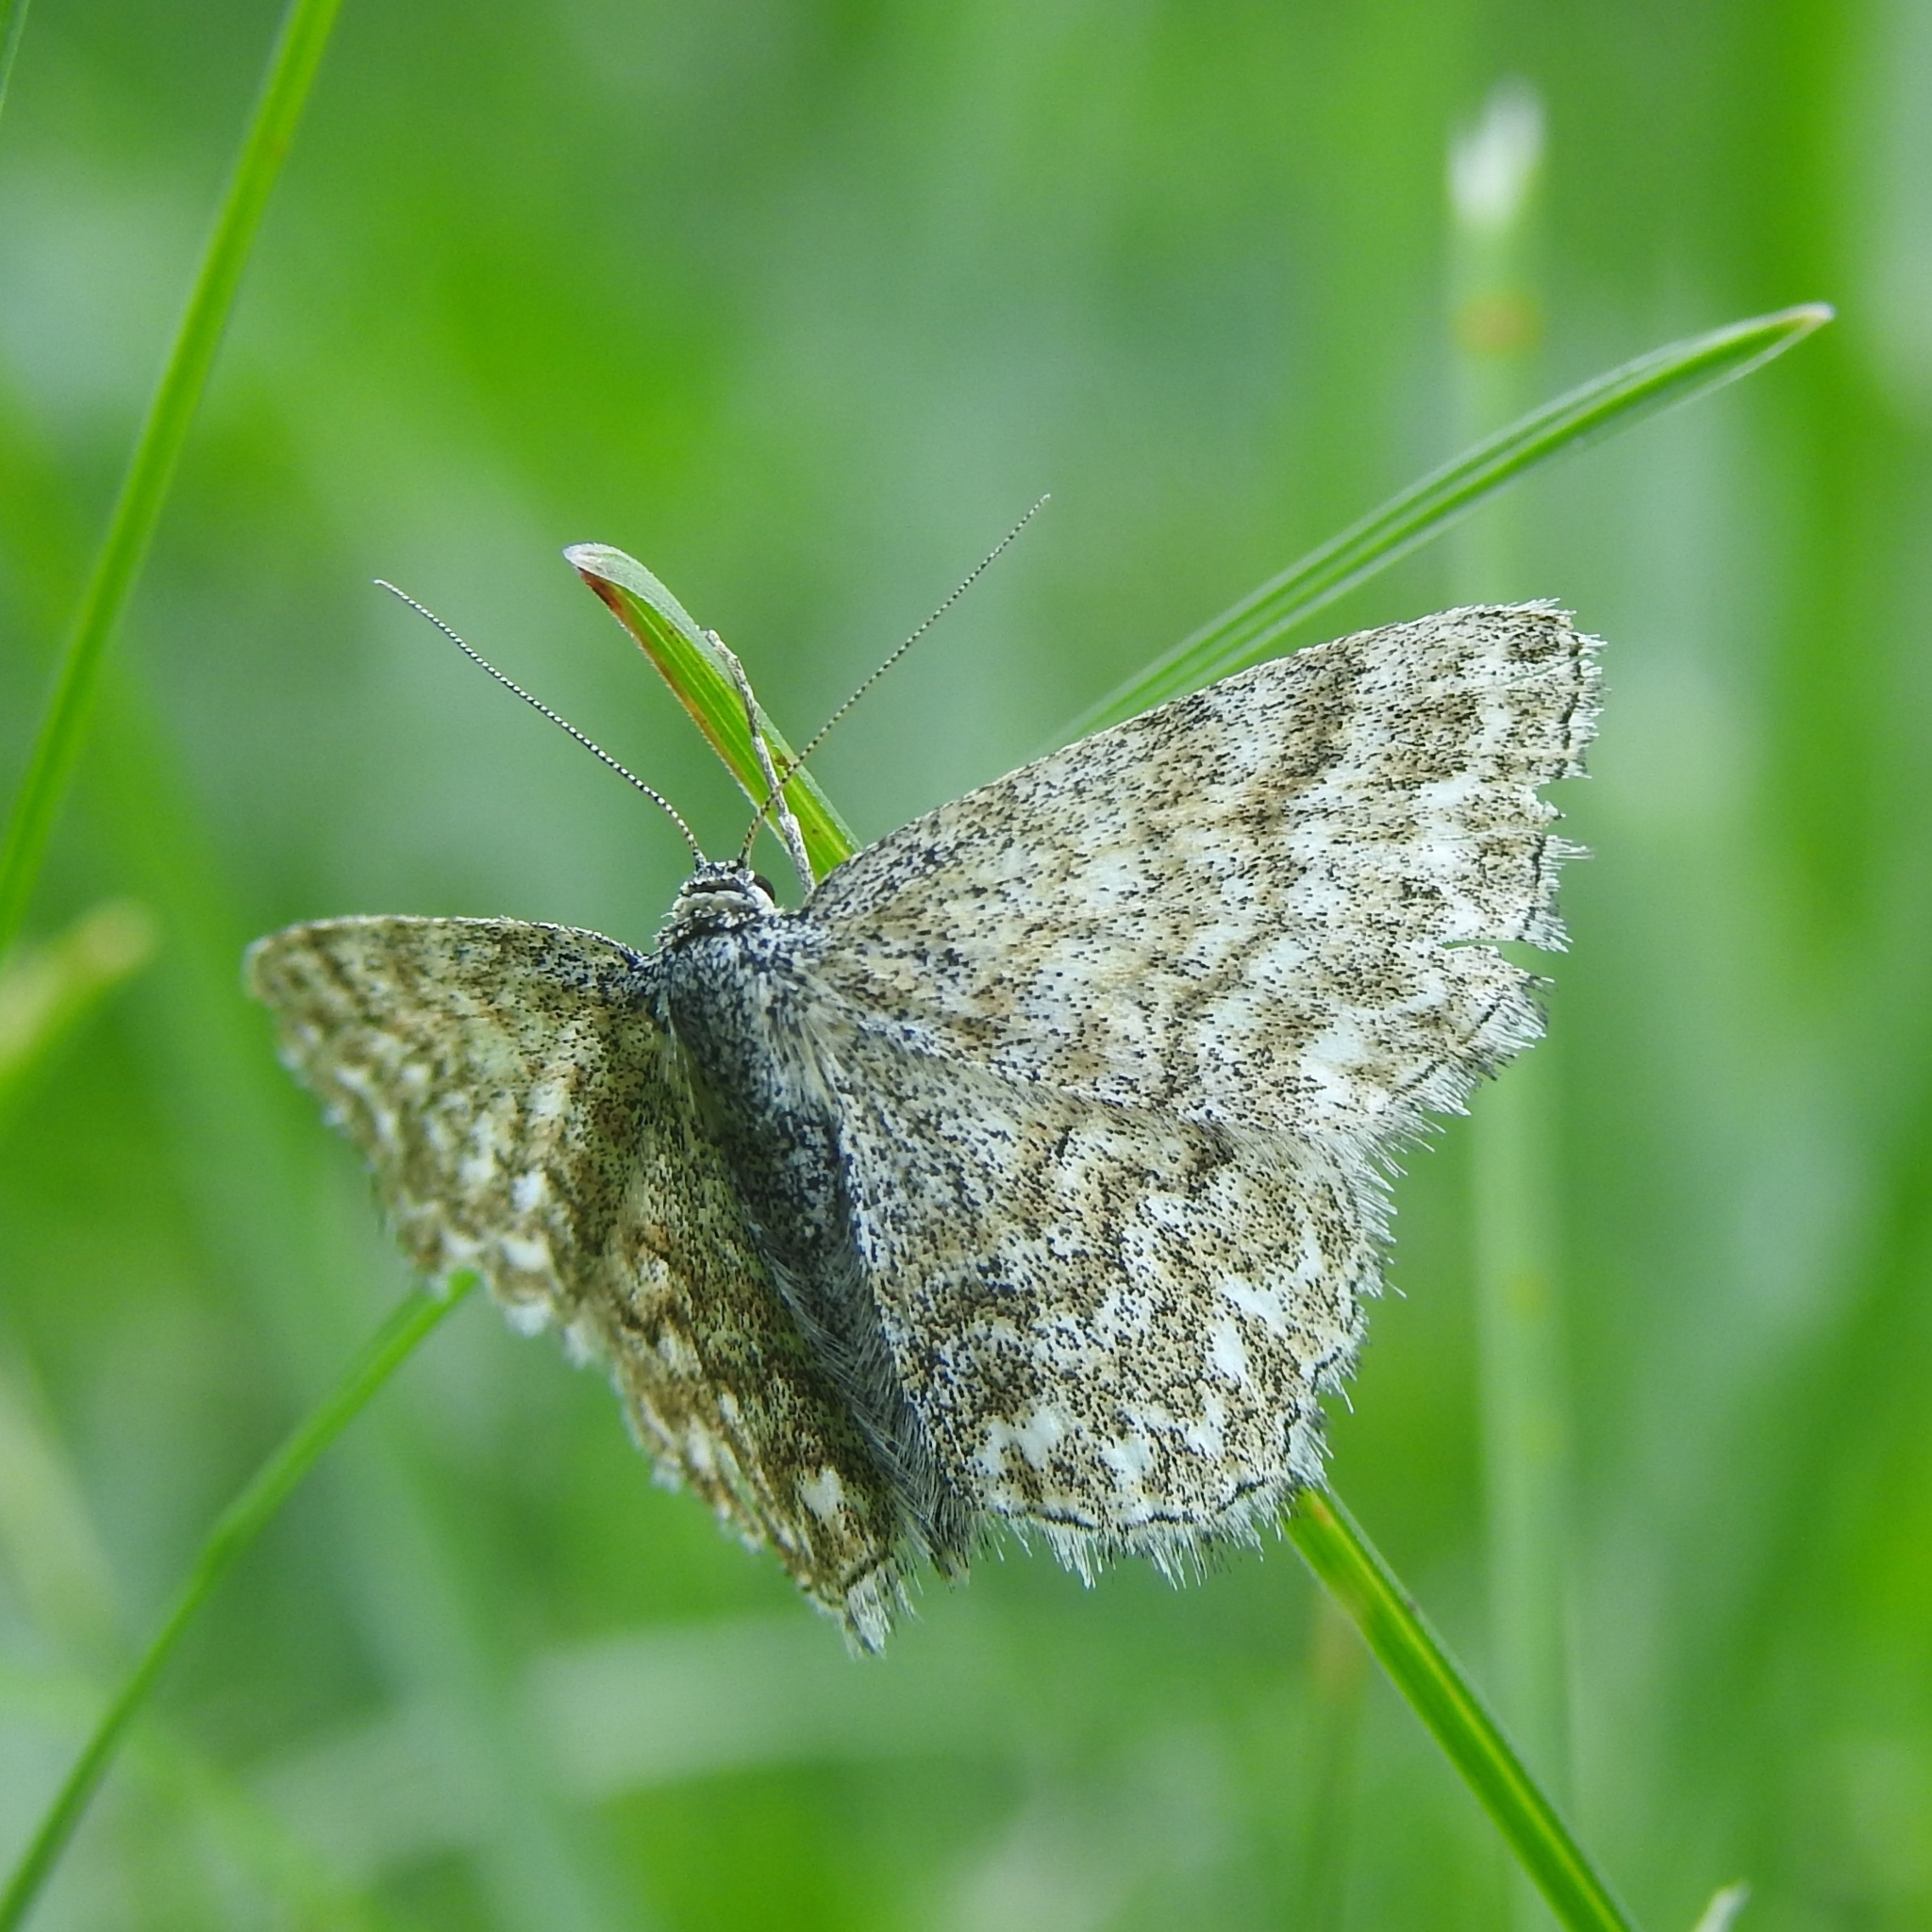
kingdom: Animalia
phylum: Arthropoda
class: Insecta
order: Lepidoptera
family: Geometridae
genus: Scopula
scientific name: Scopula immorata
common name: Lewes wave
